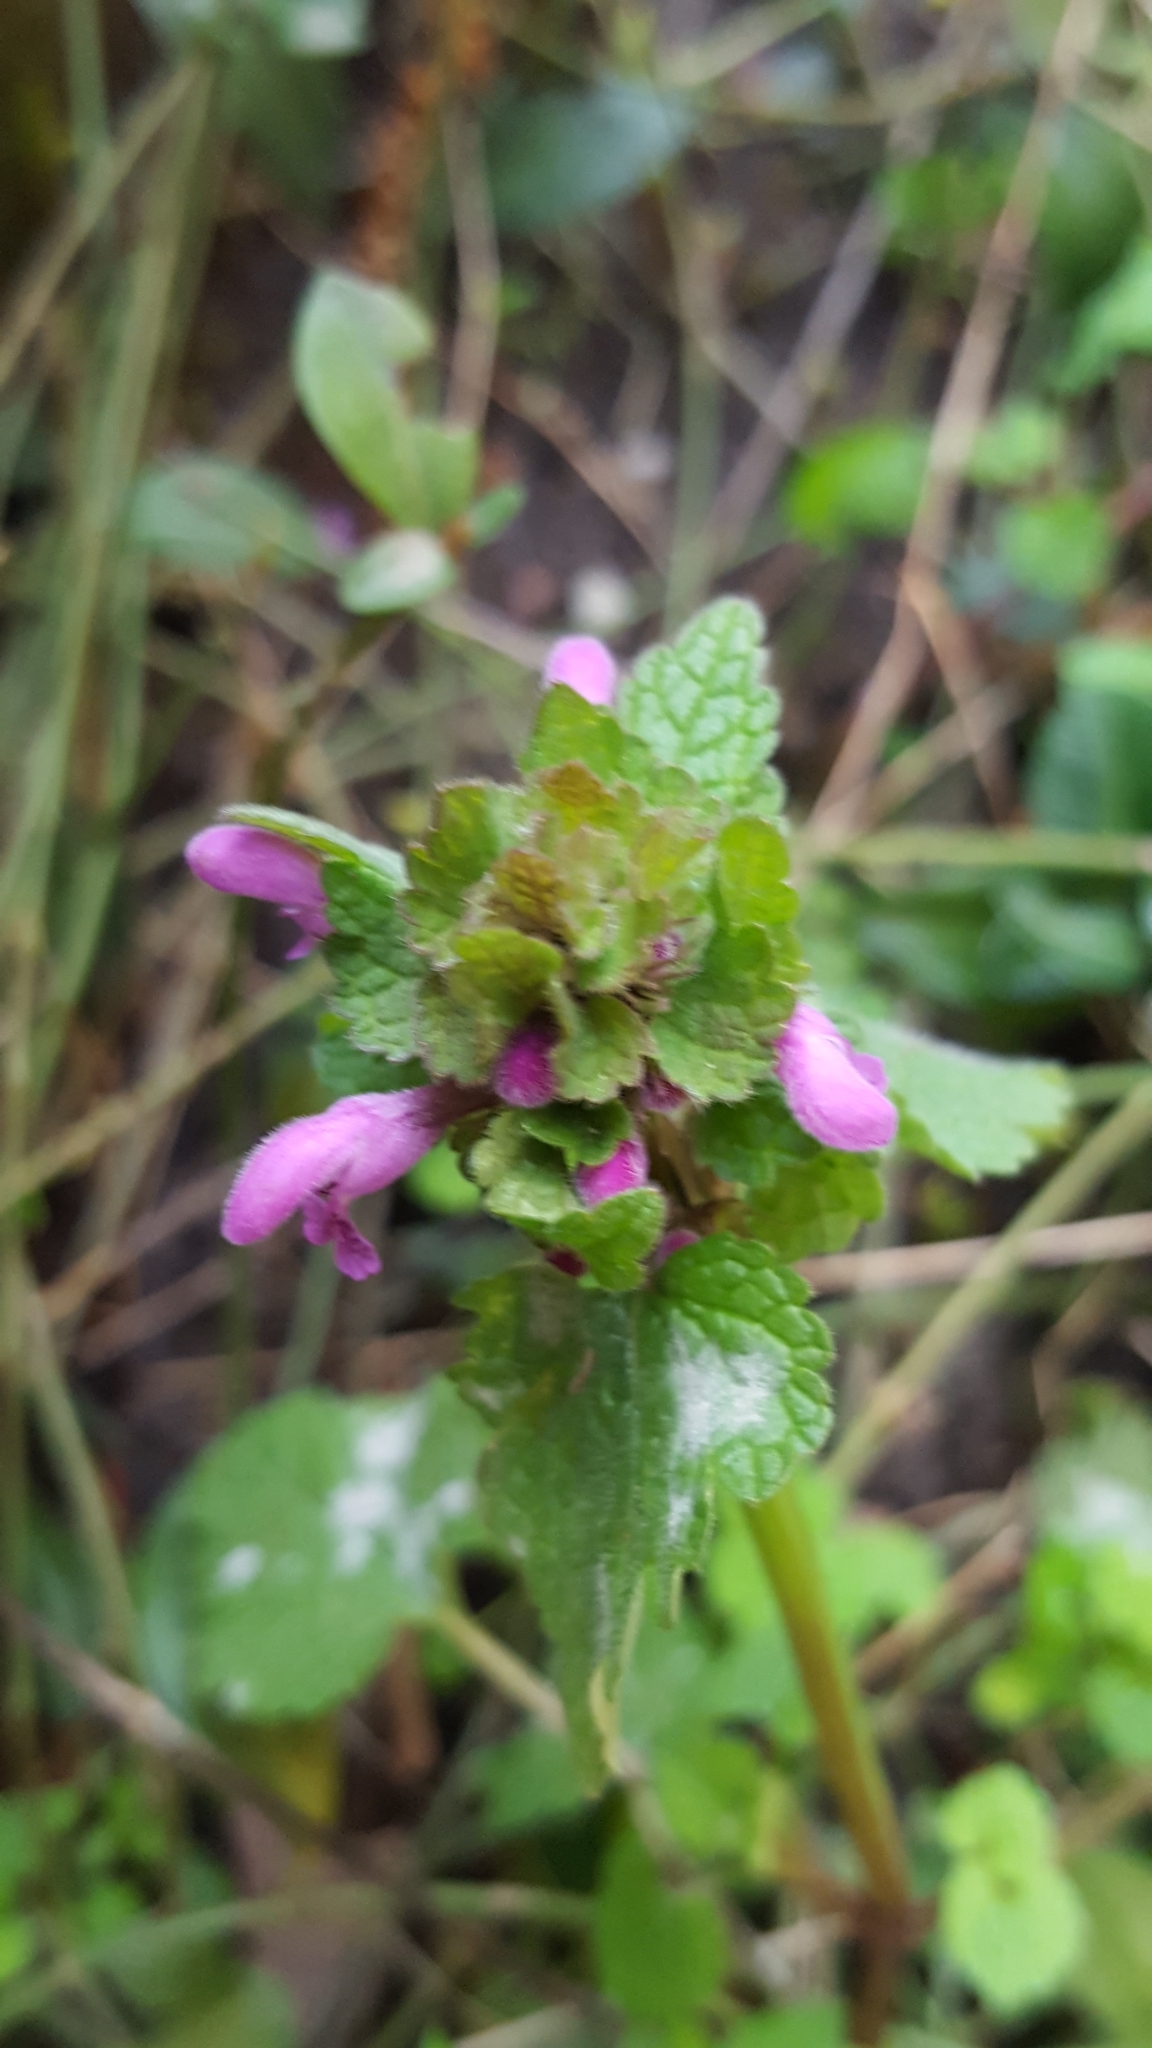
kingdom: Plantae
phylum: Tracheophyta
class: Magnoliopsida
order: Lamiales
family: Lamiaceae
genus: Lamium
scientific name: Lamium purpureum
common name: Red dead-nettle
